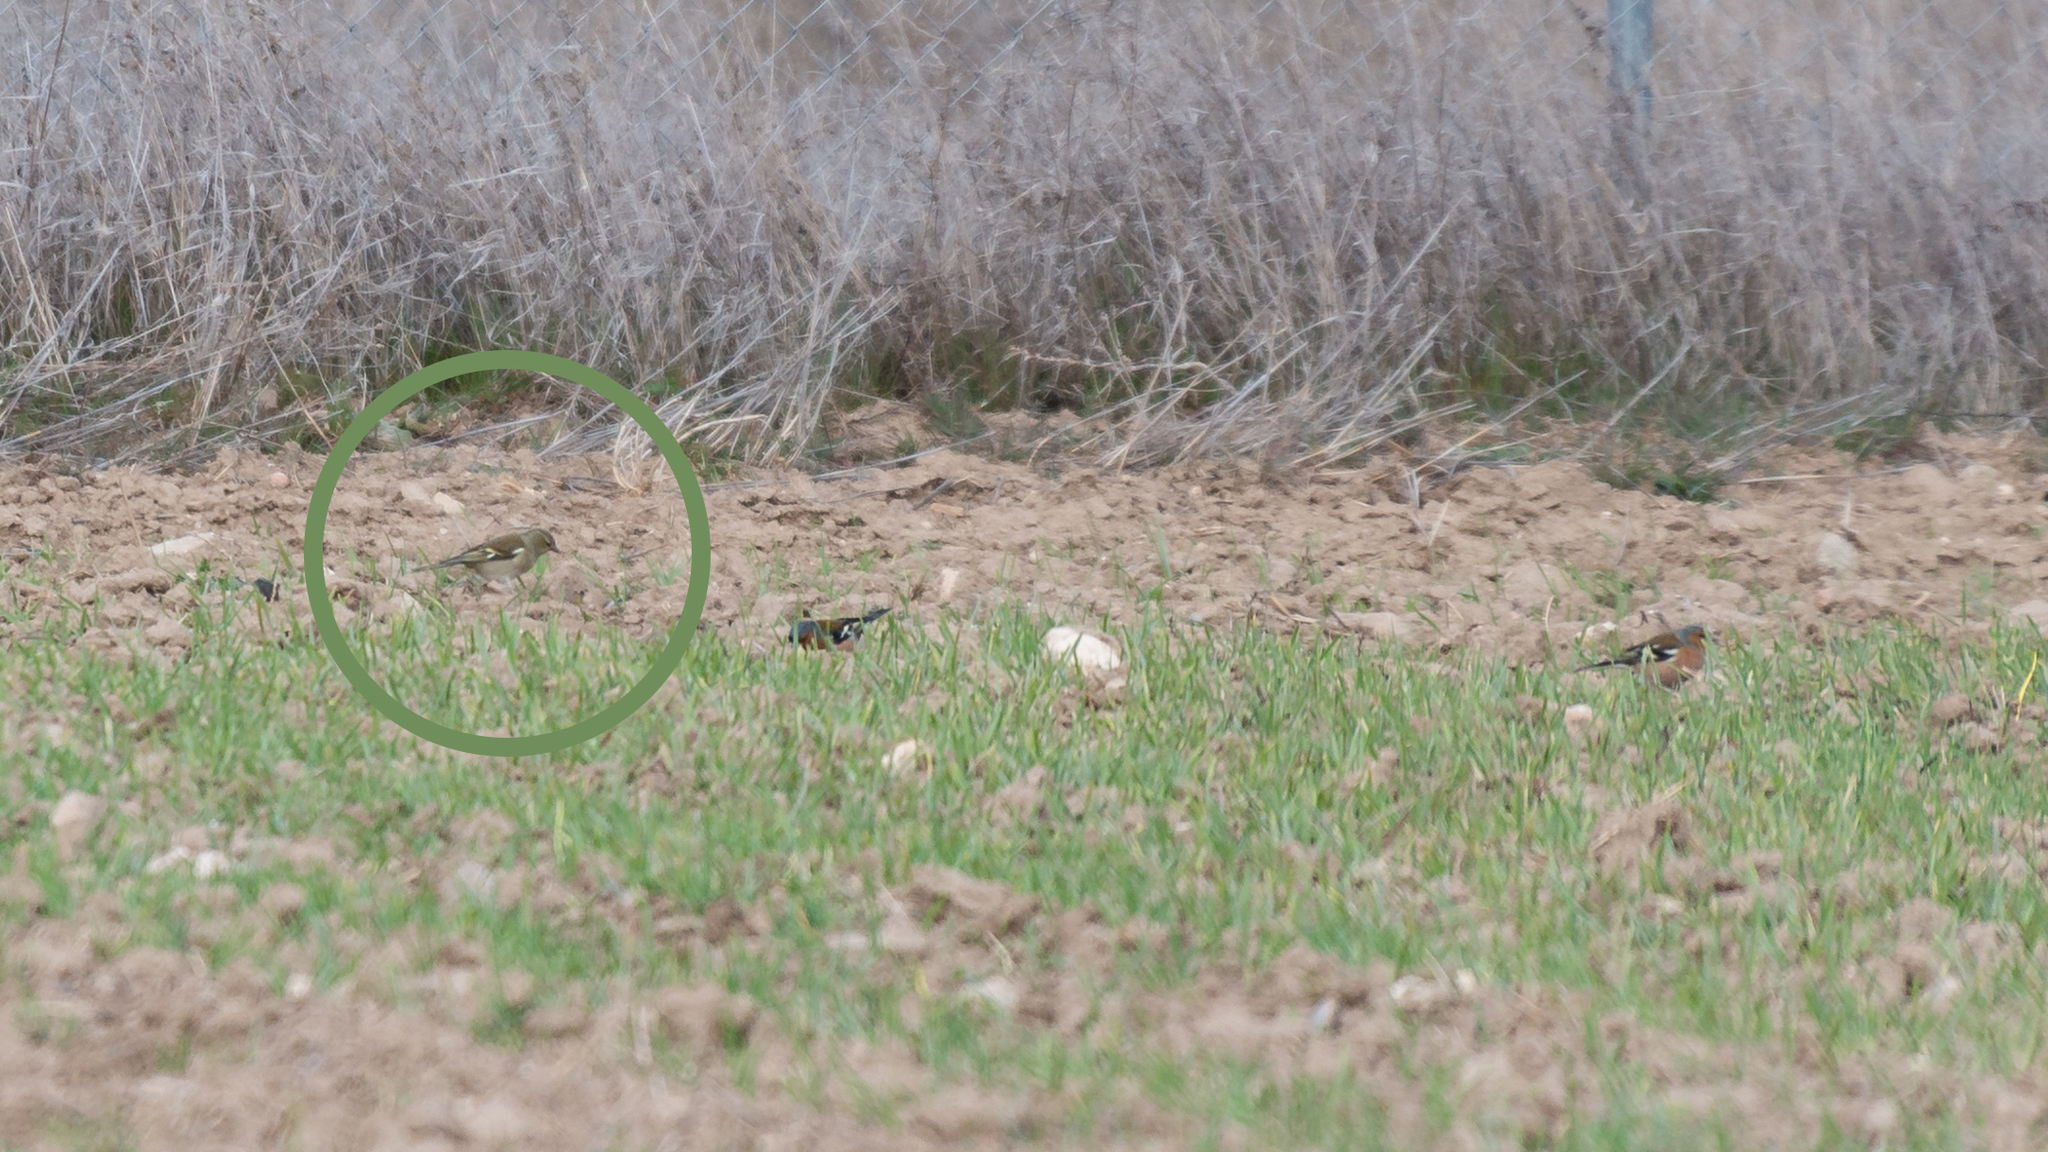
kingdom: Animalia
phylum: Chordata
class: Aves
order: Passeriformes
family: Fringillidae
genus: Fringilla
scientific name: Fringilla coelebs
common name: Common chaffinch
